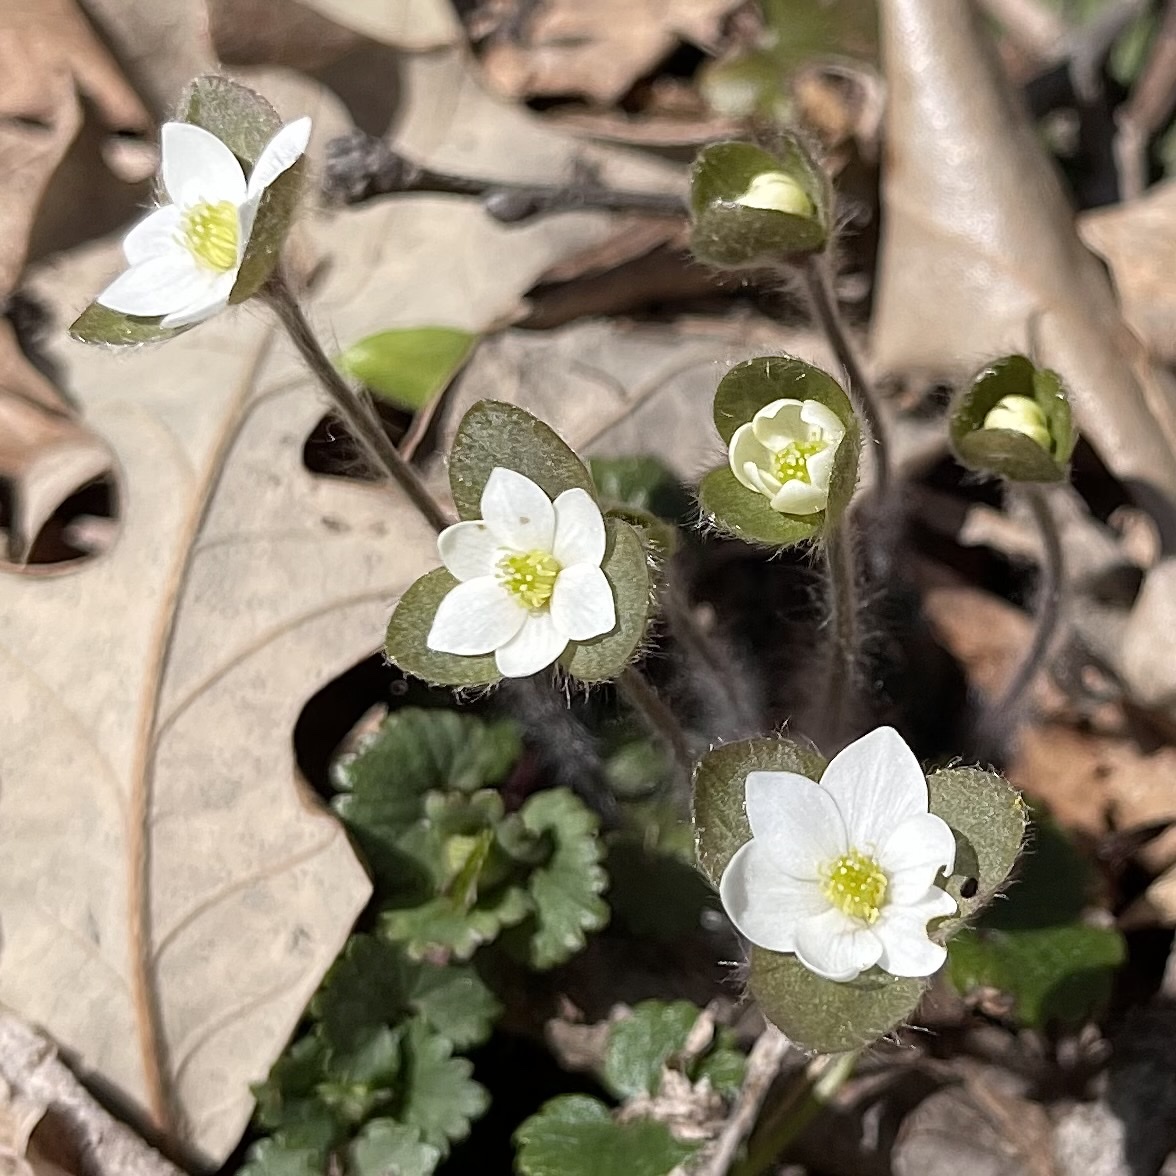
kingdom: Plantae
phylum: Tracheophyta
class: Magnoliopsida
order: Ranunculales
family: Ranunculaceae
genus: Hepatica
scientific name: Hepatica americana
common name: American hepatica
